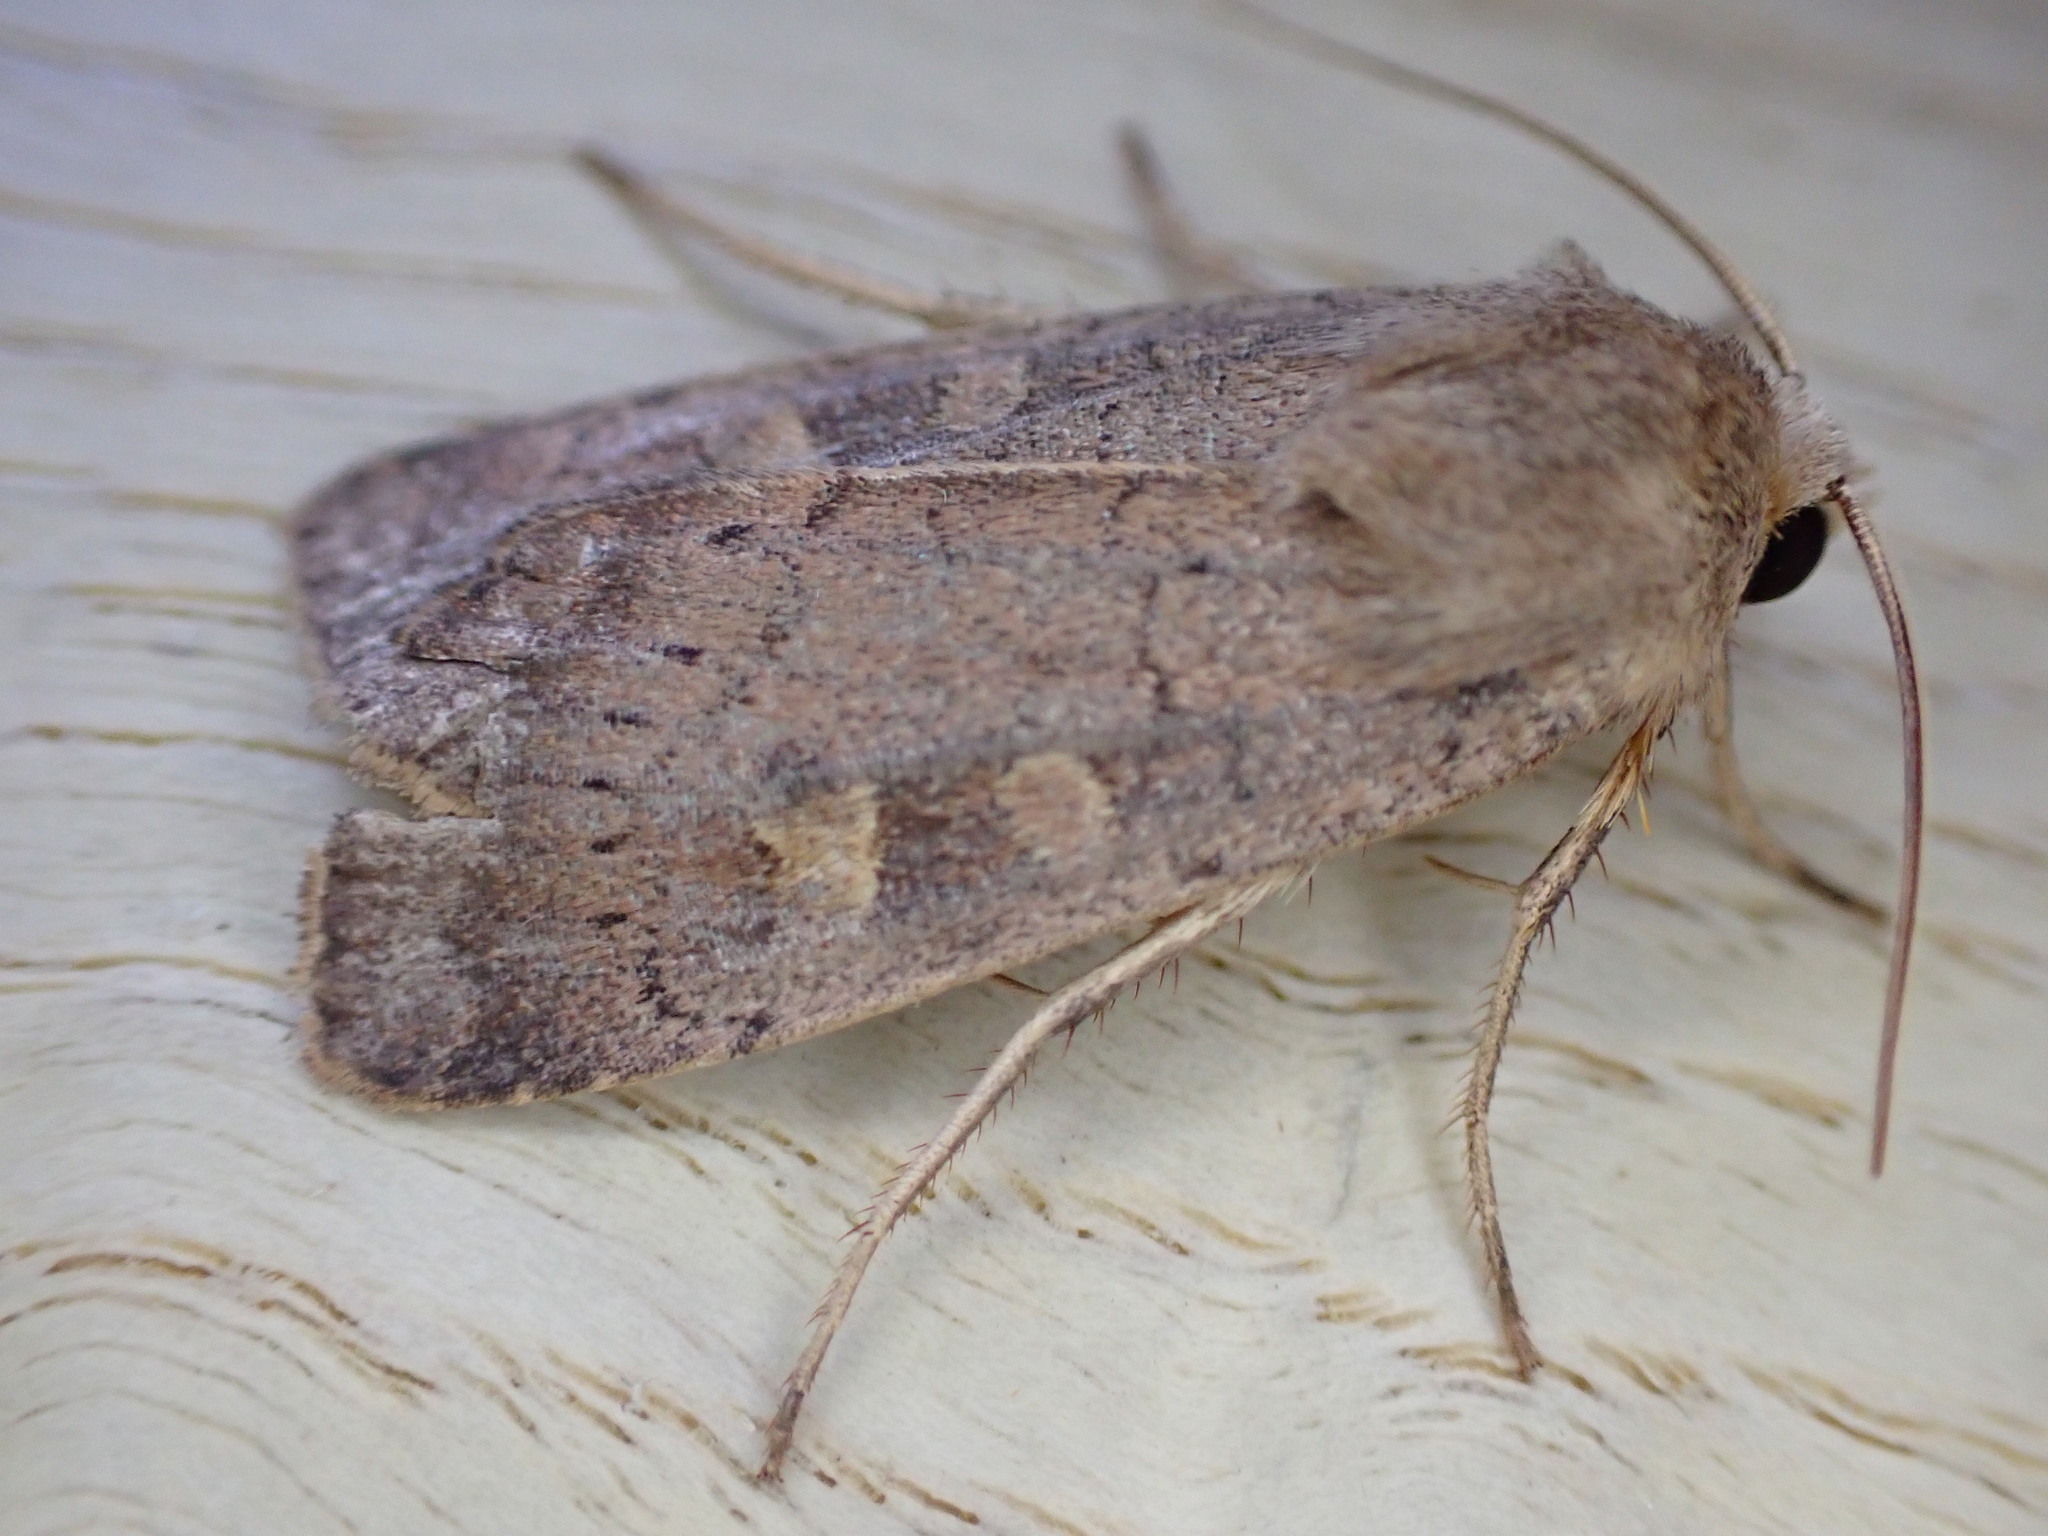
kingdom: Animalia
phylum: Arthropoda
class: Insecta
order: Lepidoptera
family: Noctuidae
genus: Xestia
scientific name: Xestia xanthographa
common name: Square-spot rustic
